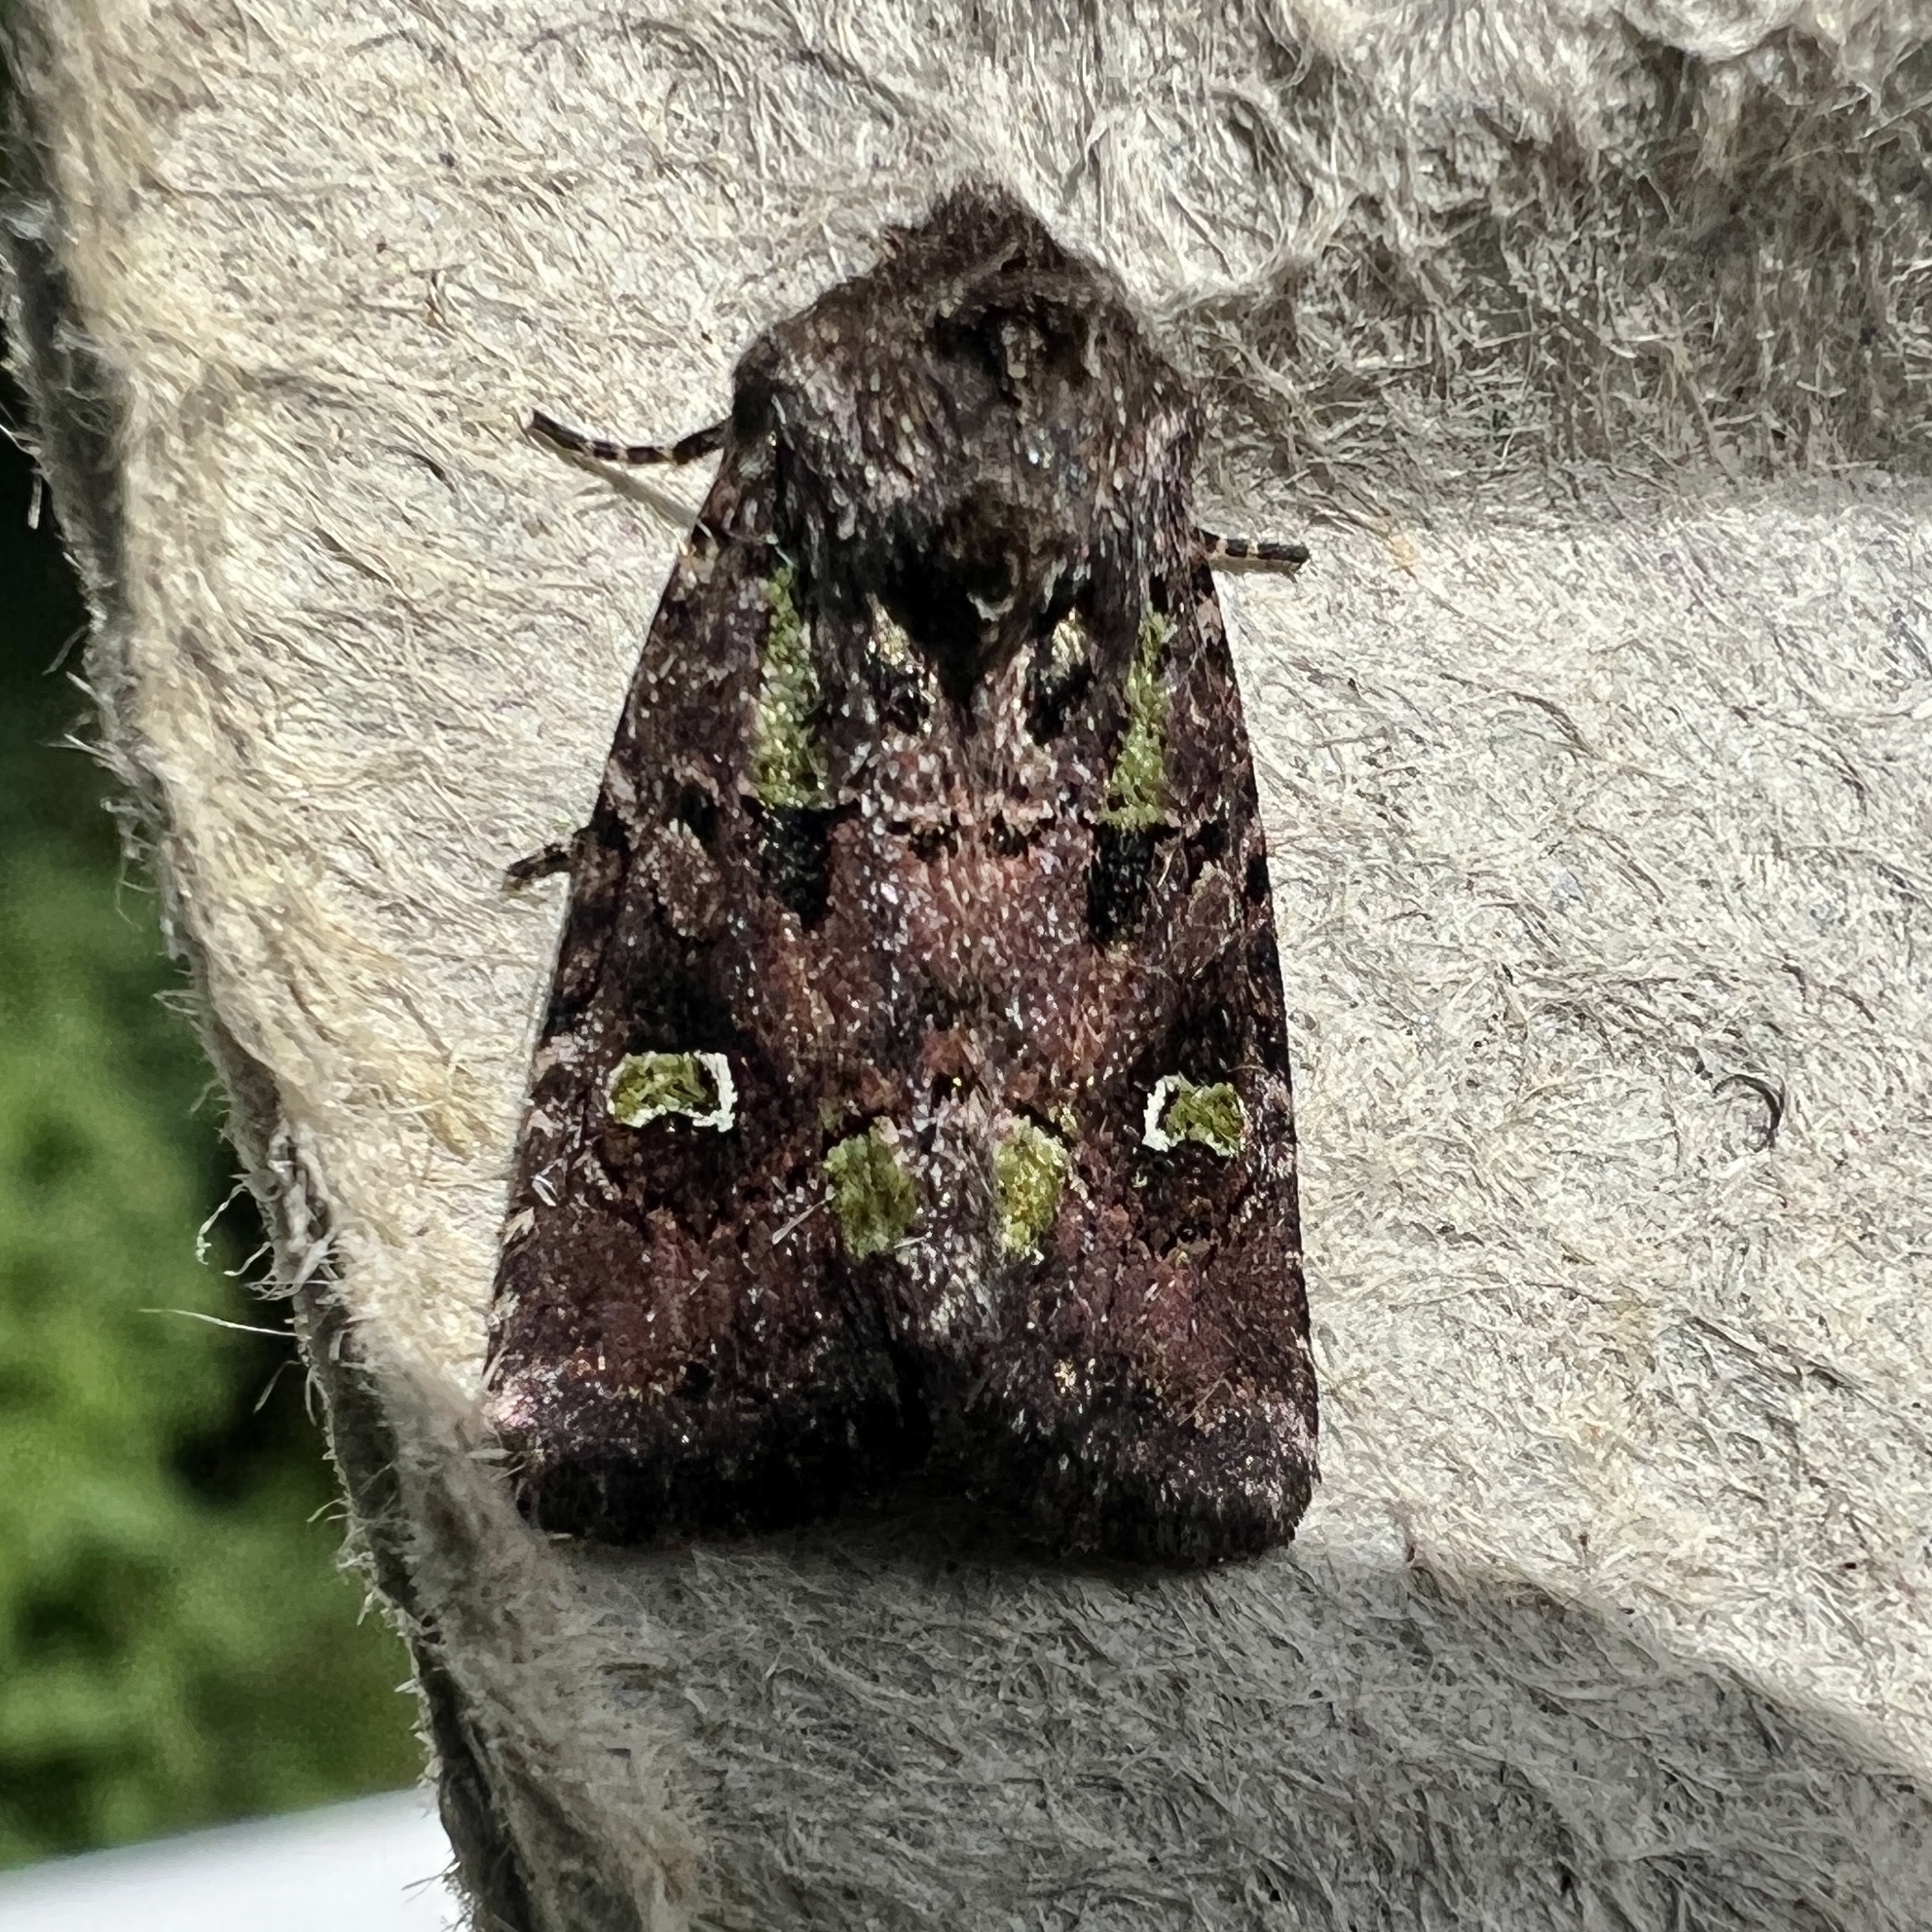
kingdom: Animalia
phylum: Arthropoda
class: Insecta
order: Lepidoptera
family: Noctuidae
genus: Lacinipolia
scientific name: Lacinipolia renigera
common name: Kidney-spotted minor
